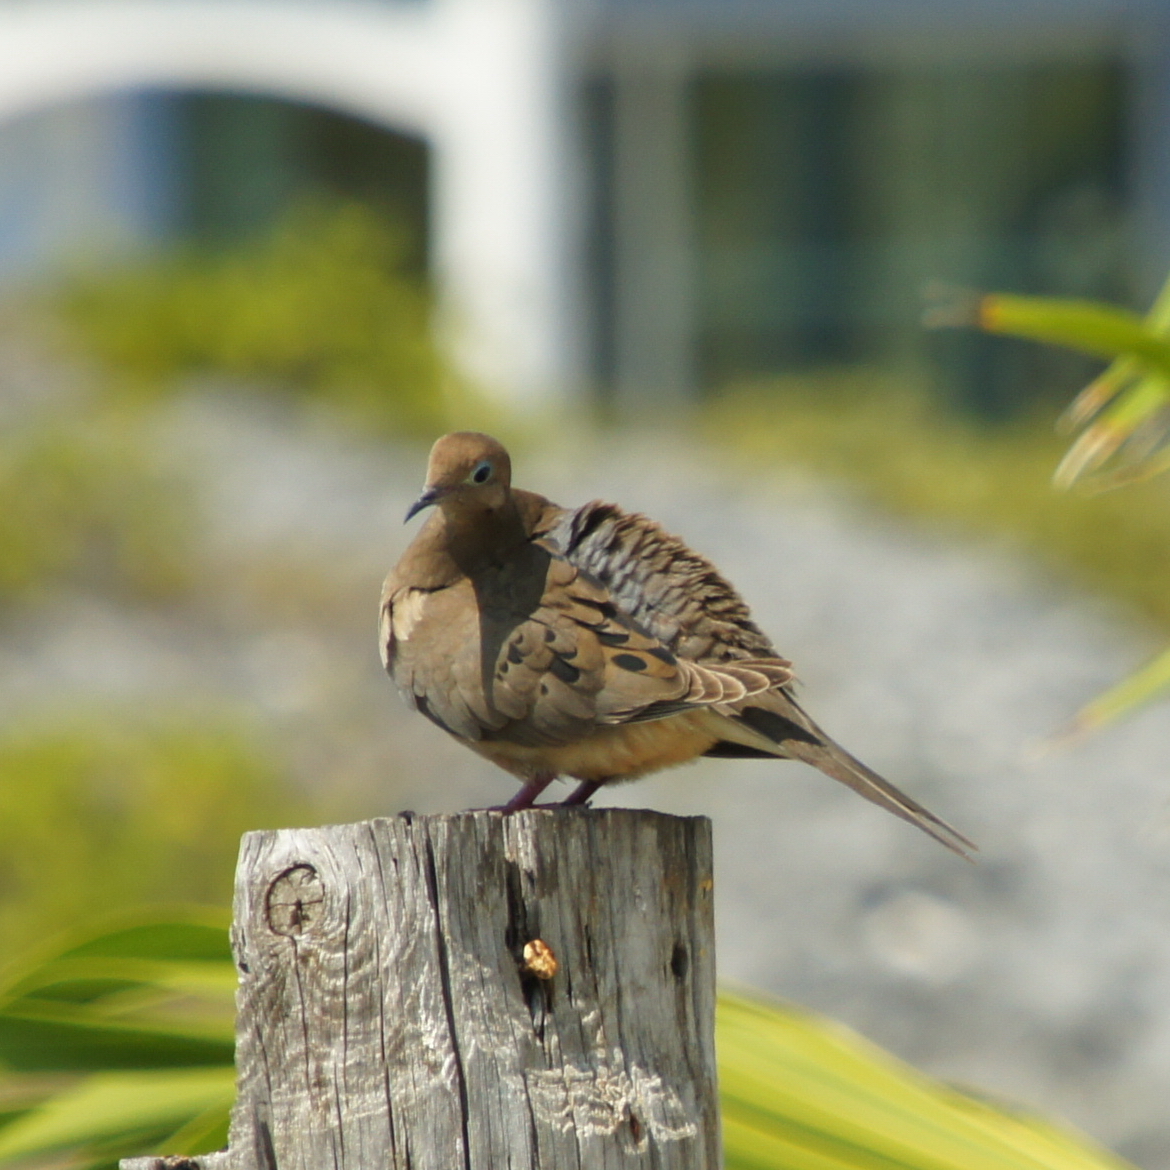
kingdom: Animalia
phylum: Chordata
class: Aves
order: Columbiformes
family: Columbidae
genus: Zenaida
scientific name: Zenaida macroura
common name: Mourning dove
